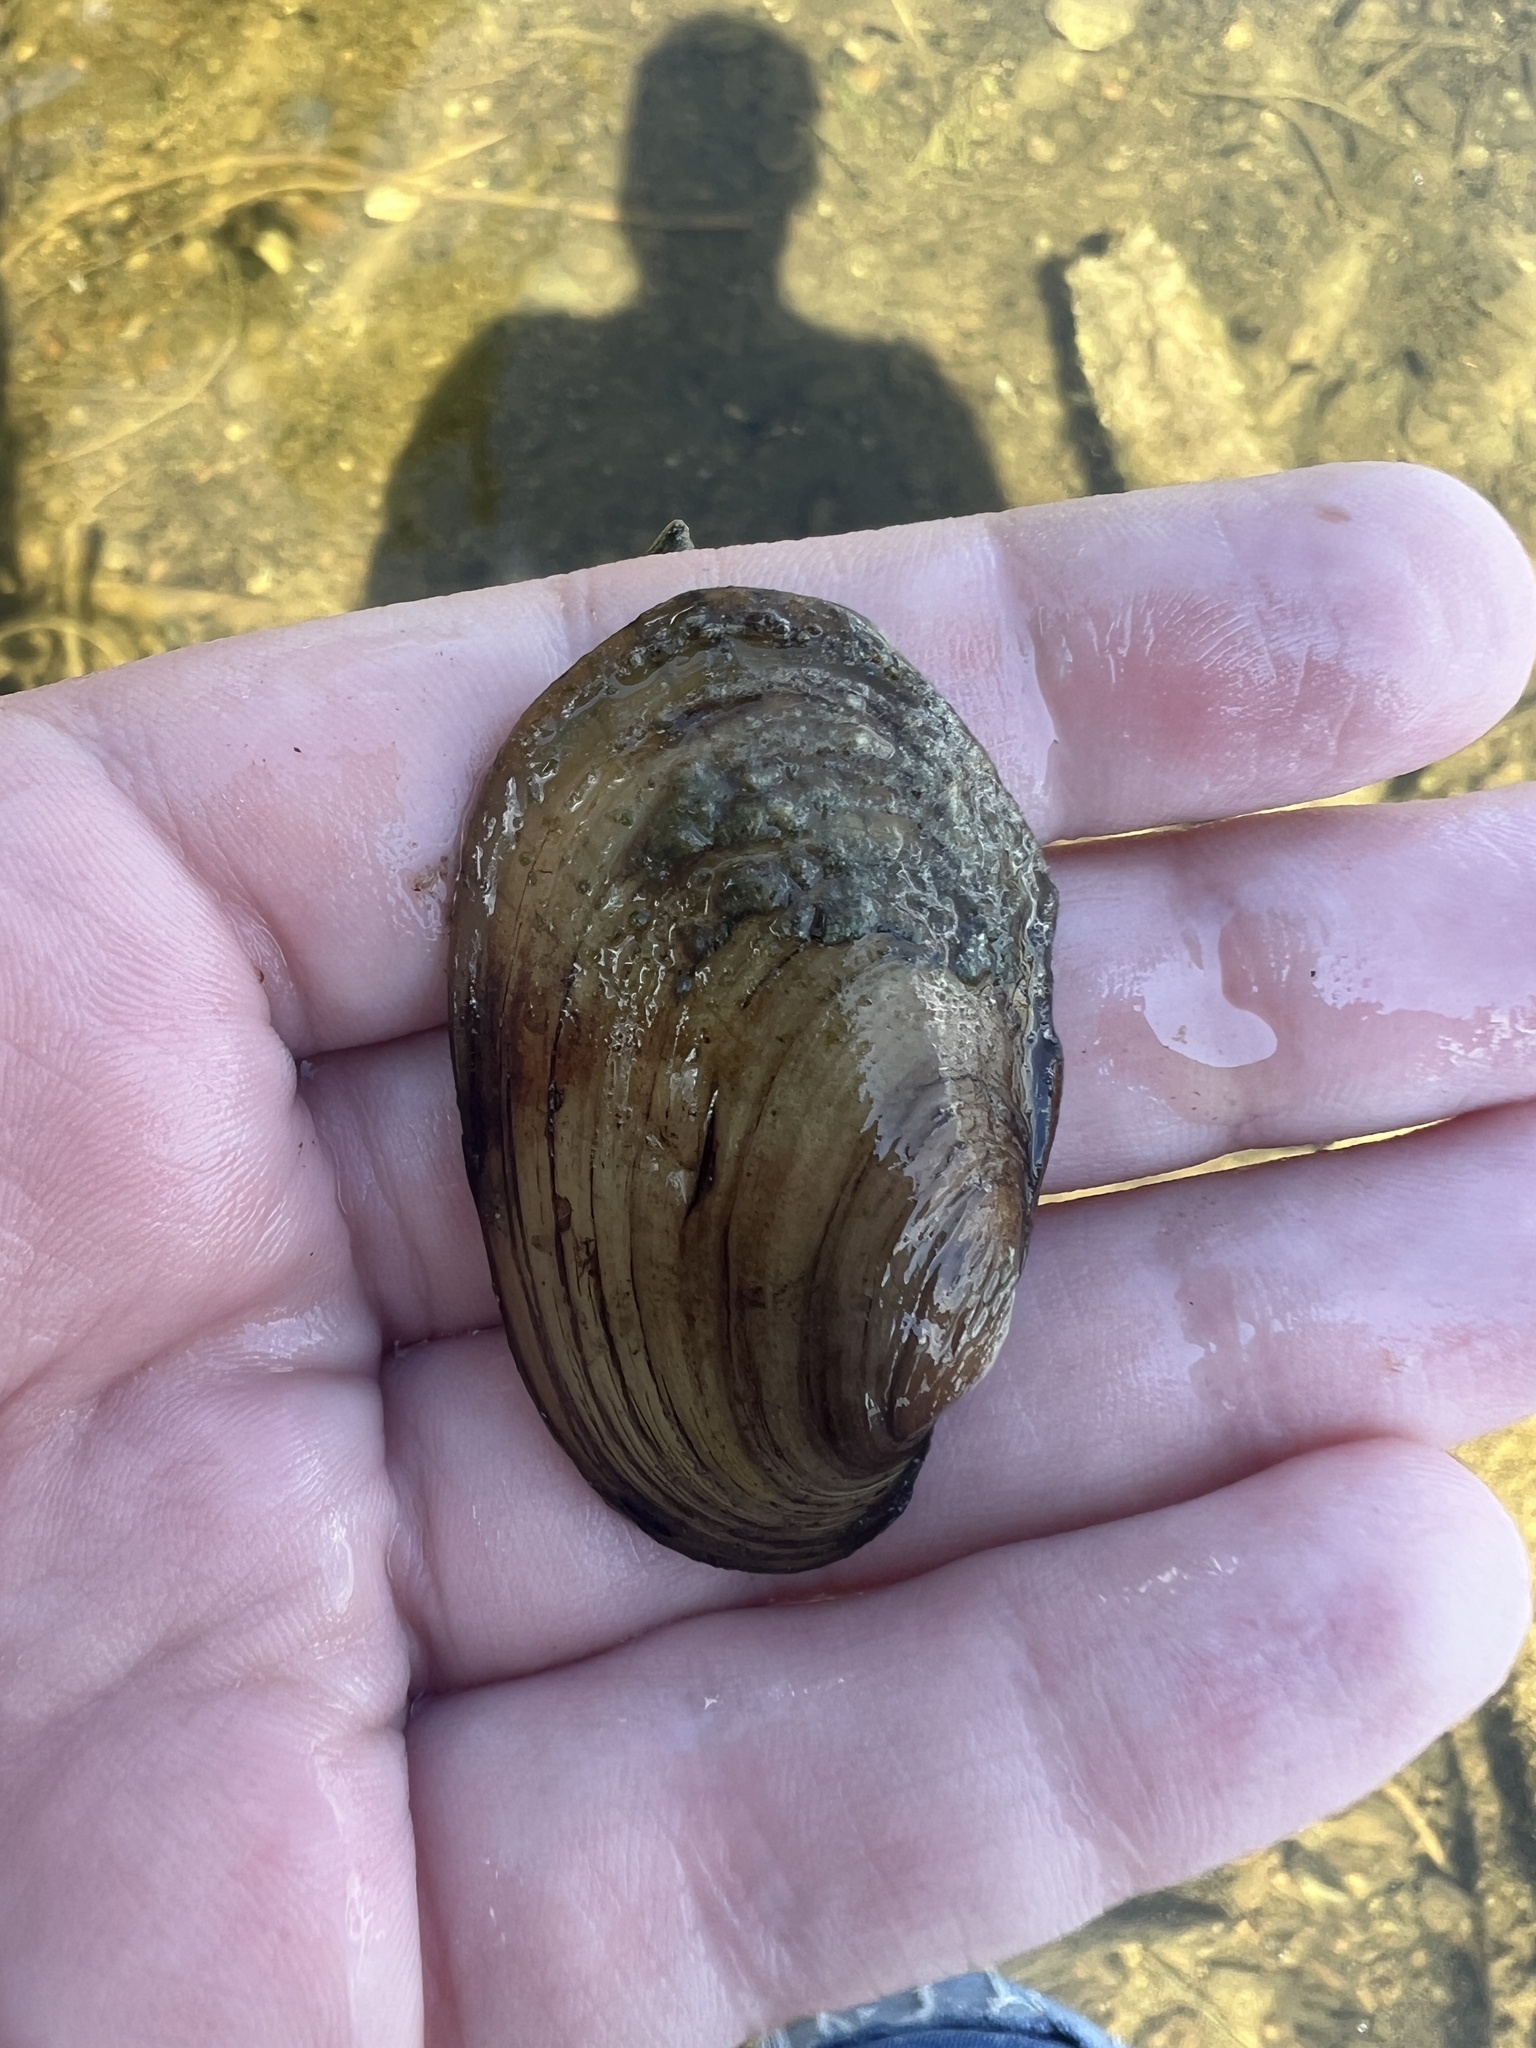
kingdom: Animalia
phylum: Mollusca
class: Bivalvia
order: Unionida
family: Unionidae
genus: Lampsilis
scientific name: Lampsilis siliquoidea
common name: Fatmucket
